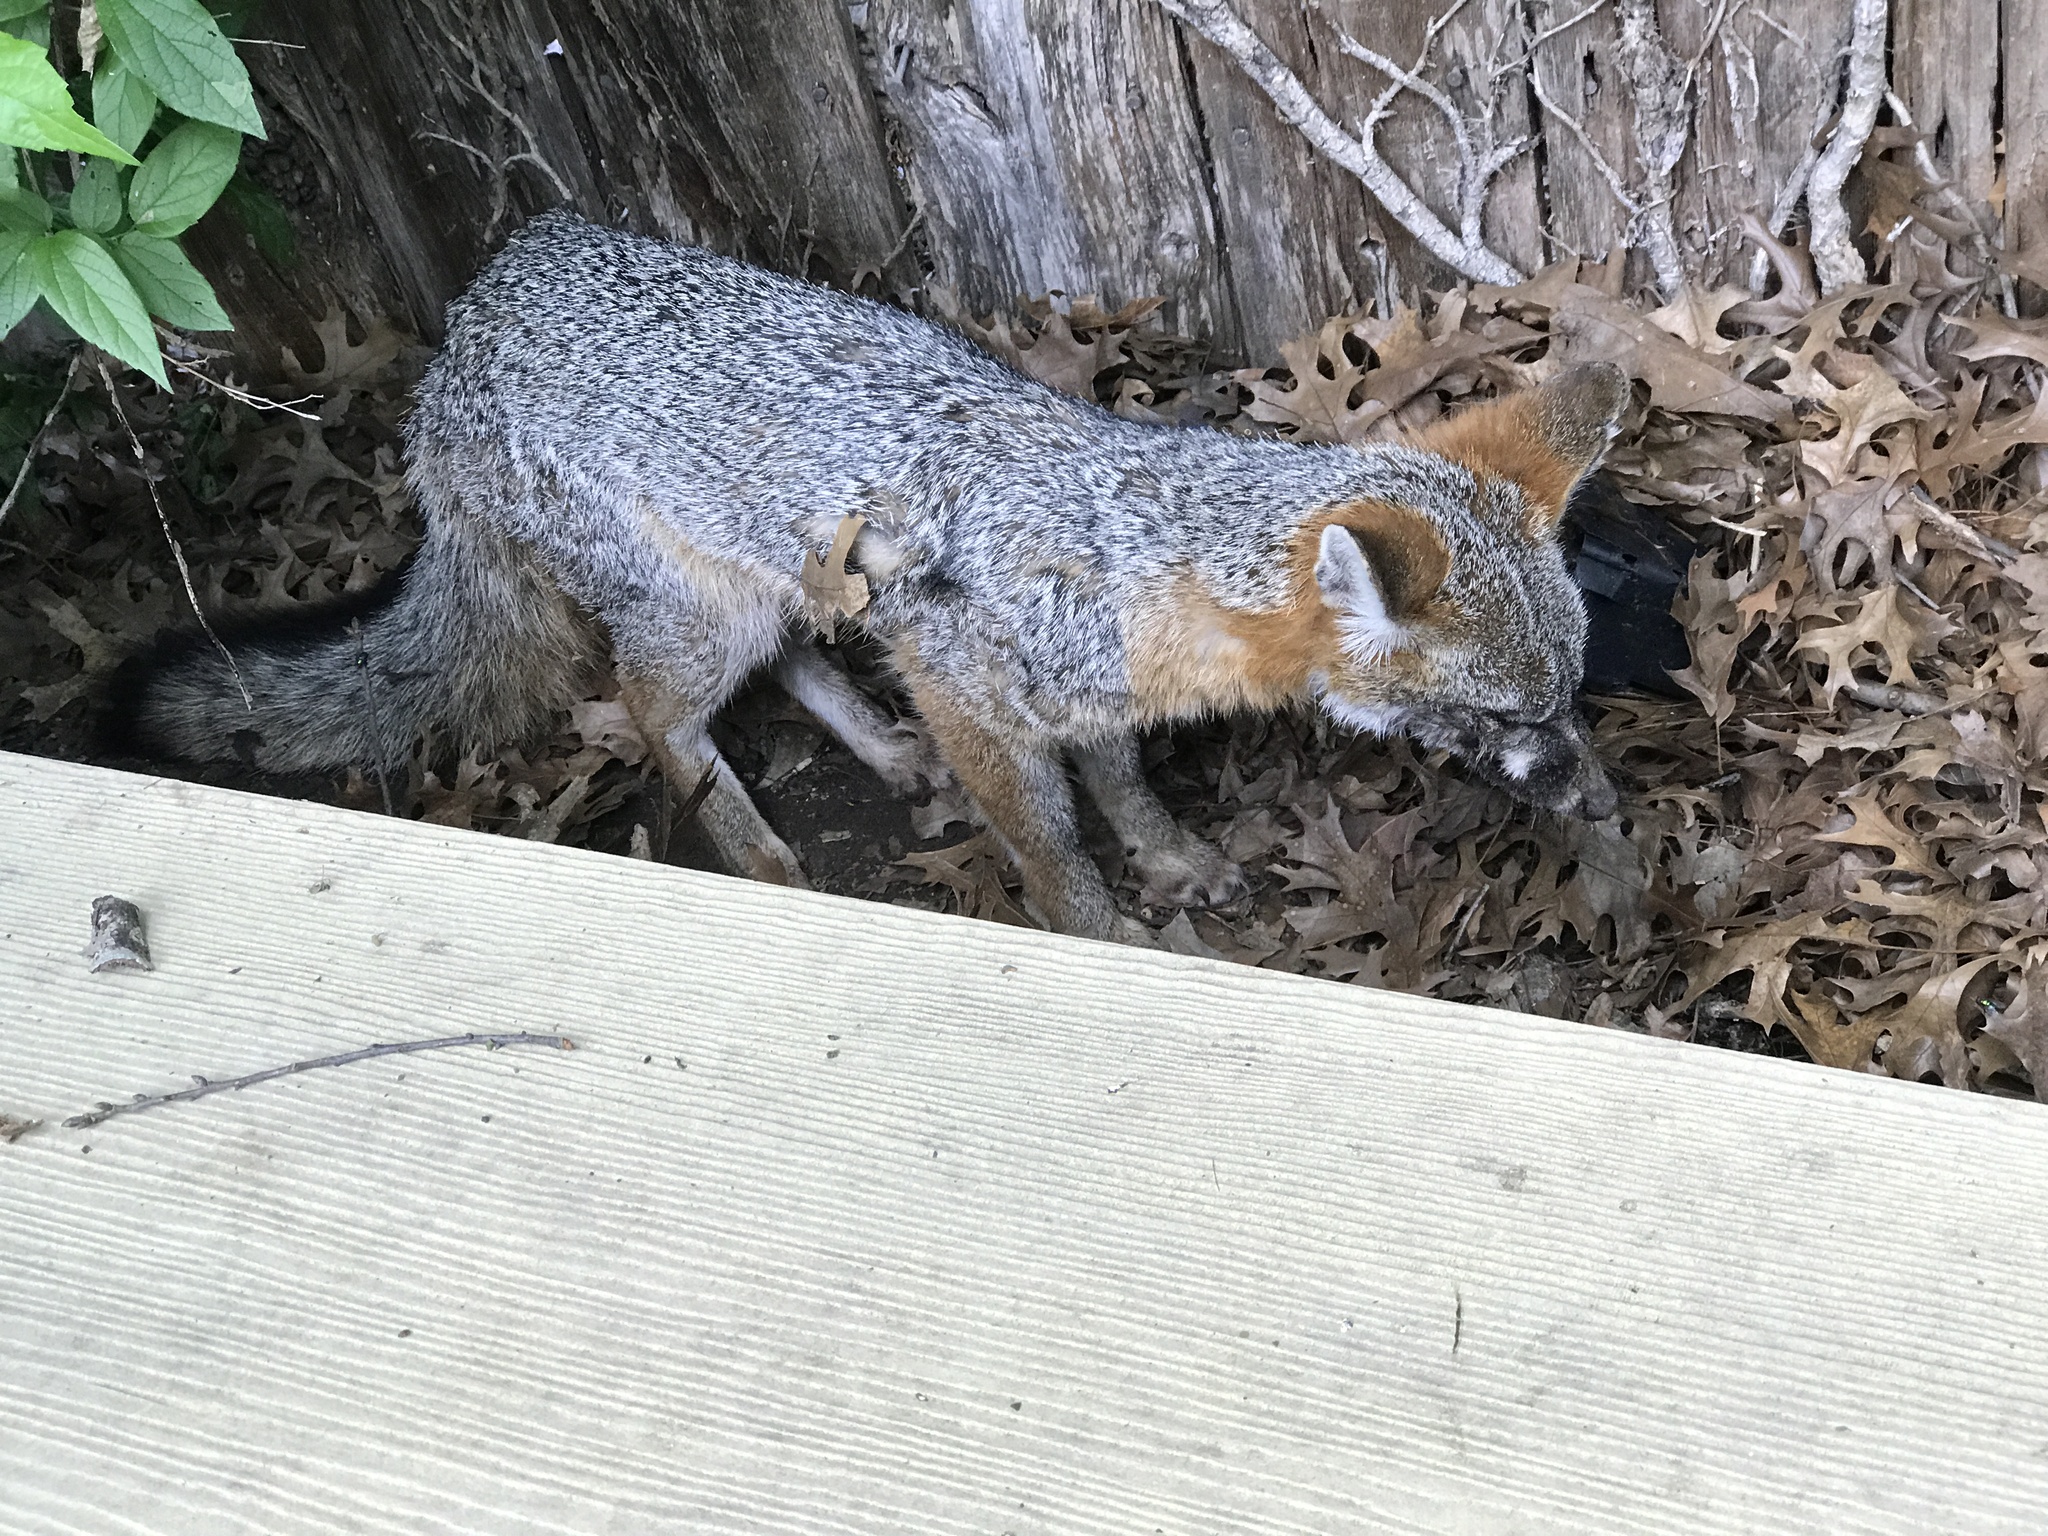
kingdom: Animalia
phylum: Chordata
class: Mammalia
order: Carnivora
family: Canidae
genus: Urocyon
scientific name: Urocyon cinereoargenteus
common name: Gray fox
